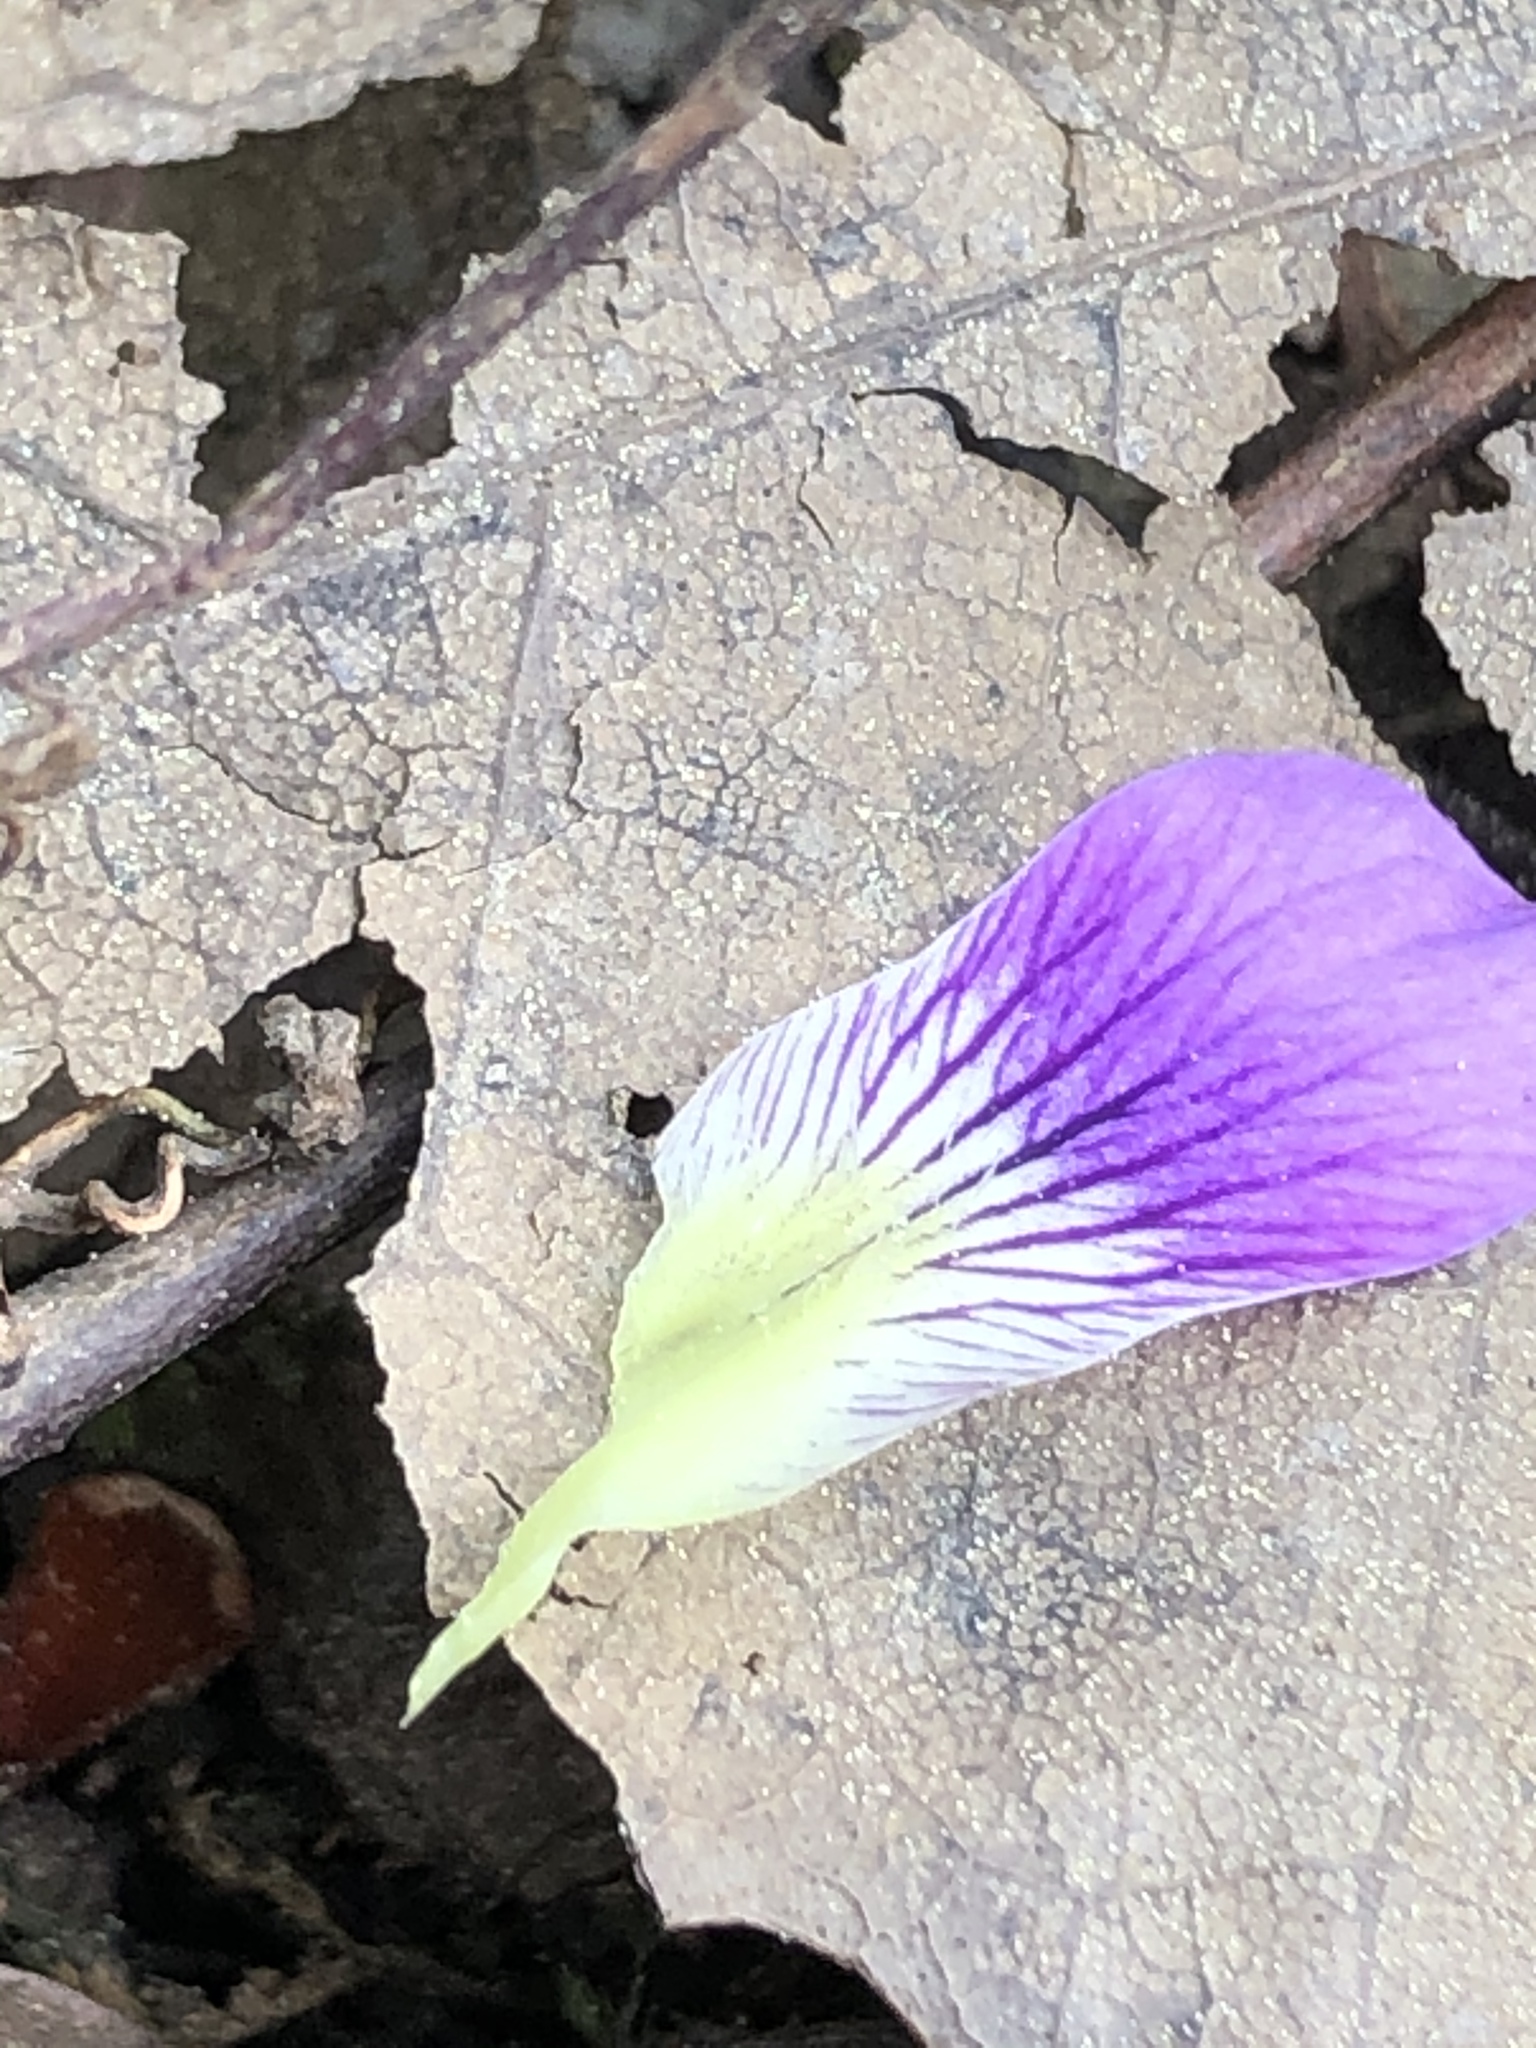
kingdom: Plantae
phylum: Tracheophyta
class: Magnoliopsida
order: Malpighiales
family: Violaceae
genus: Viola
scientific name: Viola langloisii
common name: Langlois' violet
